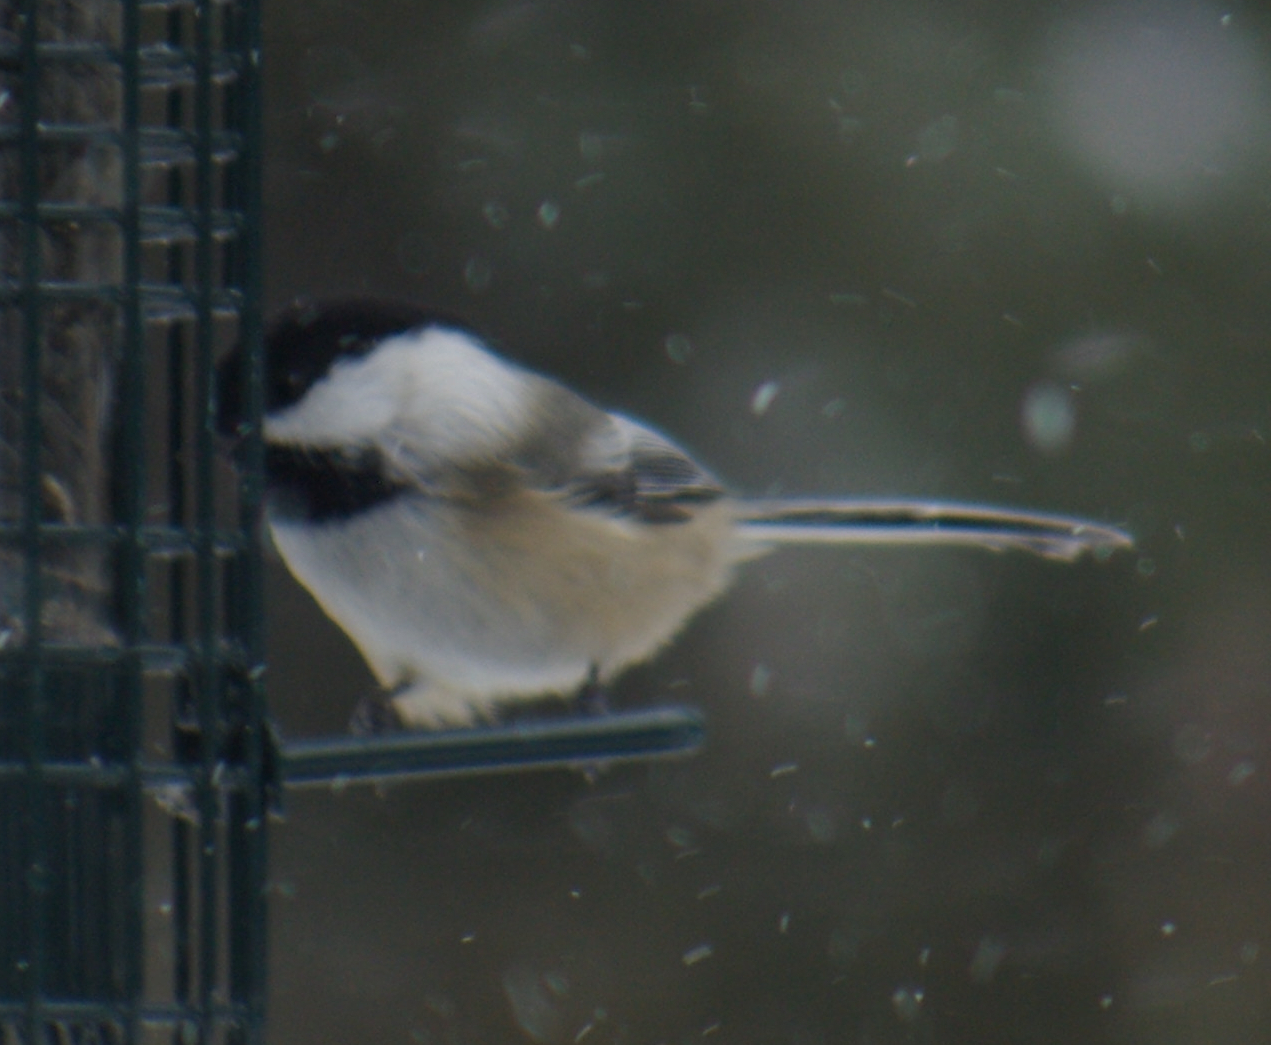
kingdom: Animalia
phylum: Chordata
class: Aves
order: Passeriformes
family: Paridae
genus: Poecile
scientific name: Poecile atricapillus
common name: Black-capped chickadee
